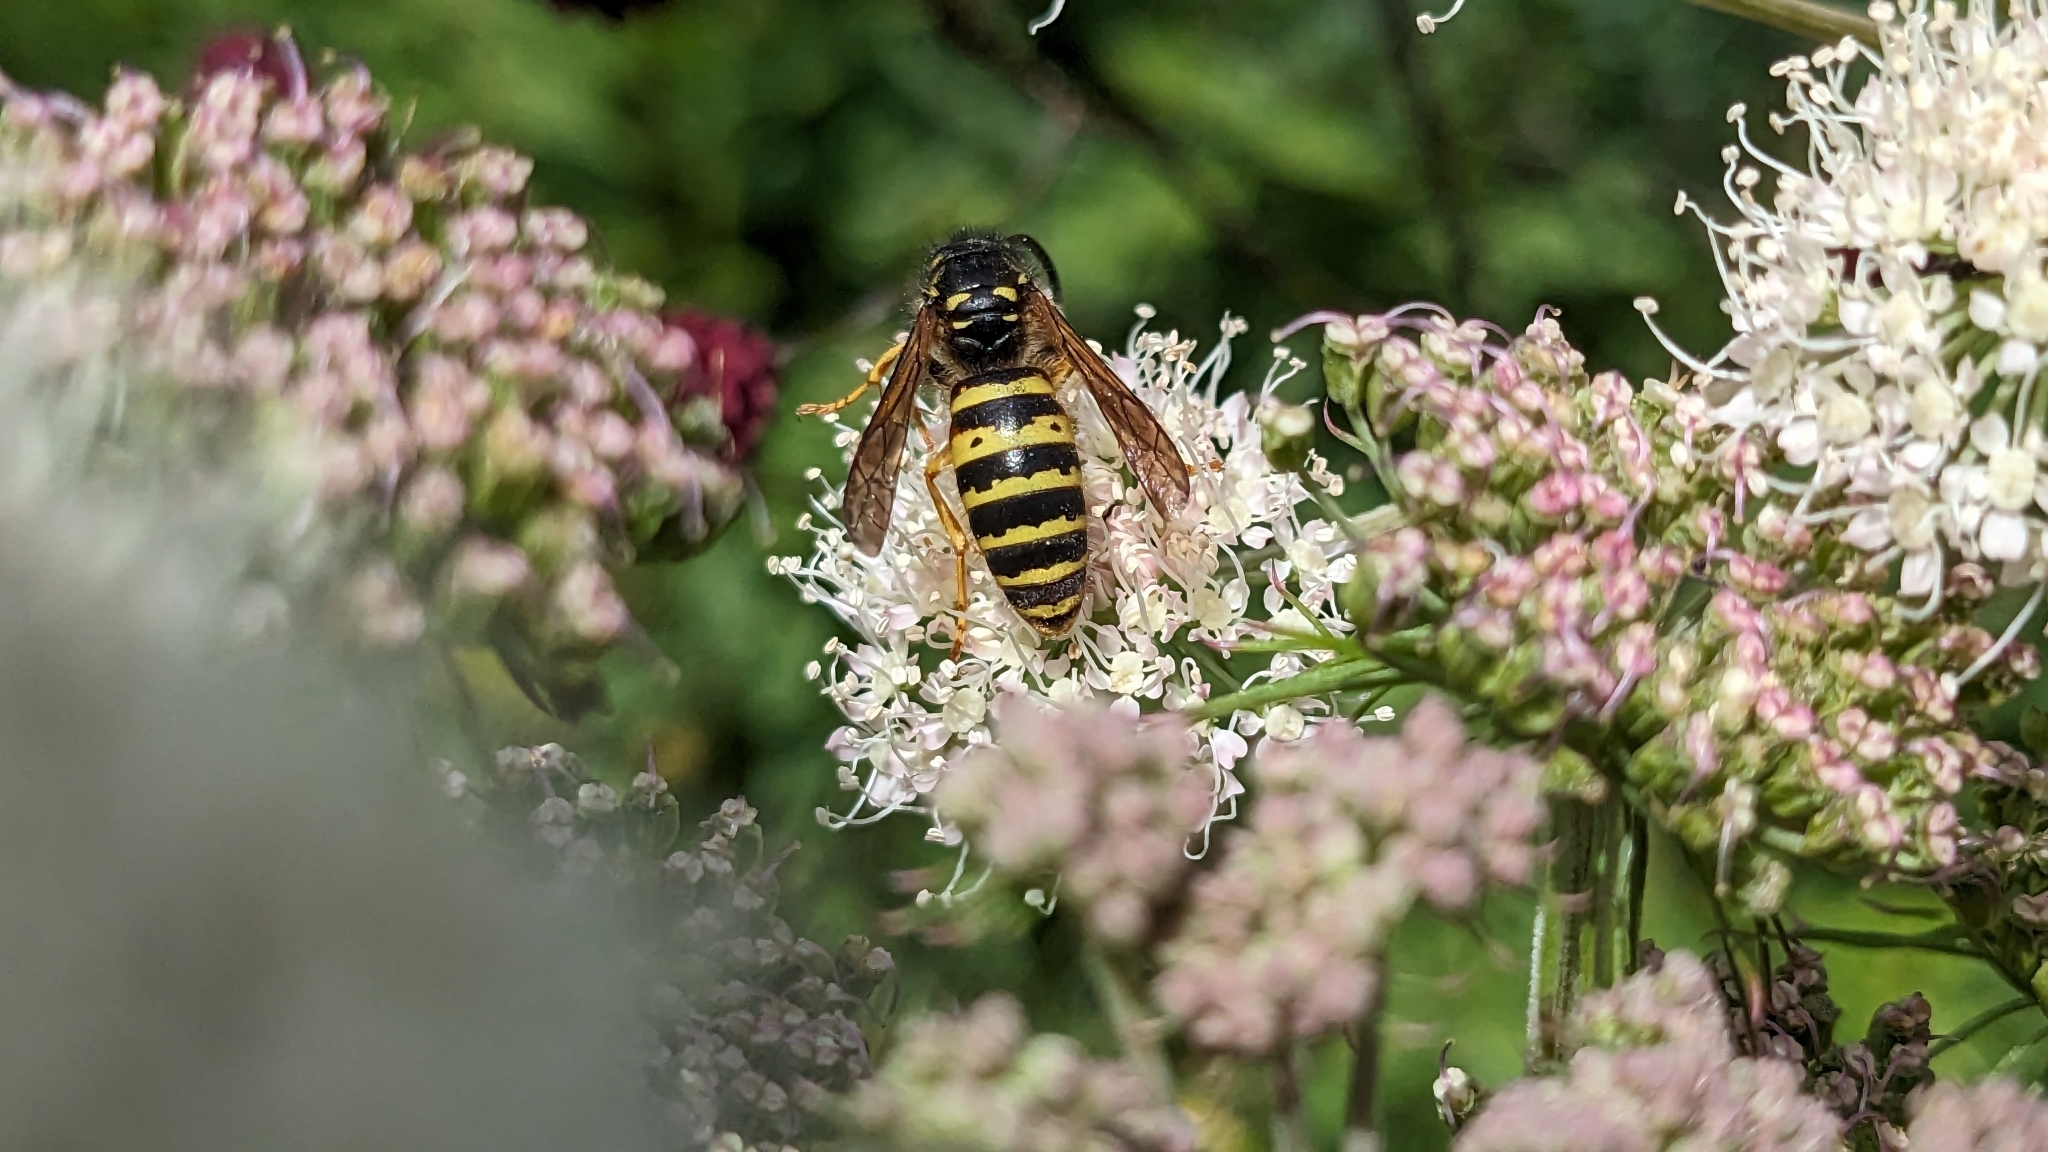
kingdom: Animalia
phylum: Arthropoda
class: Insecta
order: Hymenoptera
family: Vespidae
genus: Dolichovespula
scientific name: Dolichovespula saxonica
